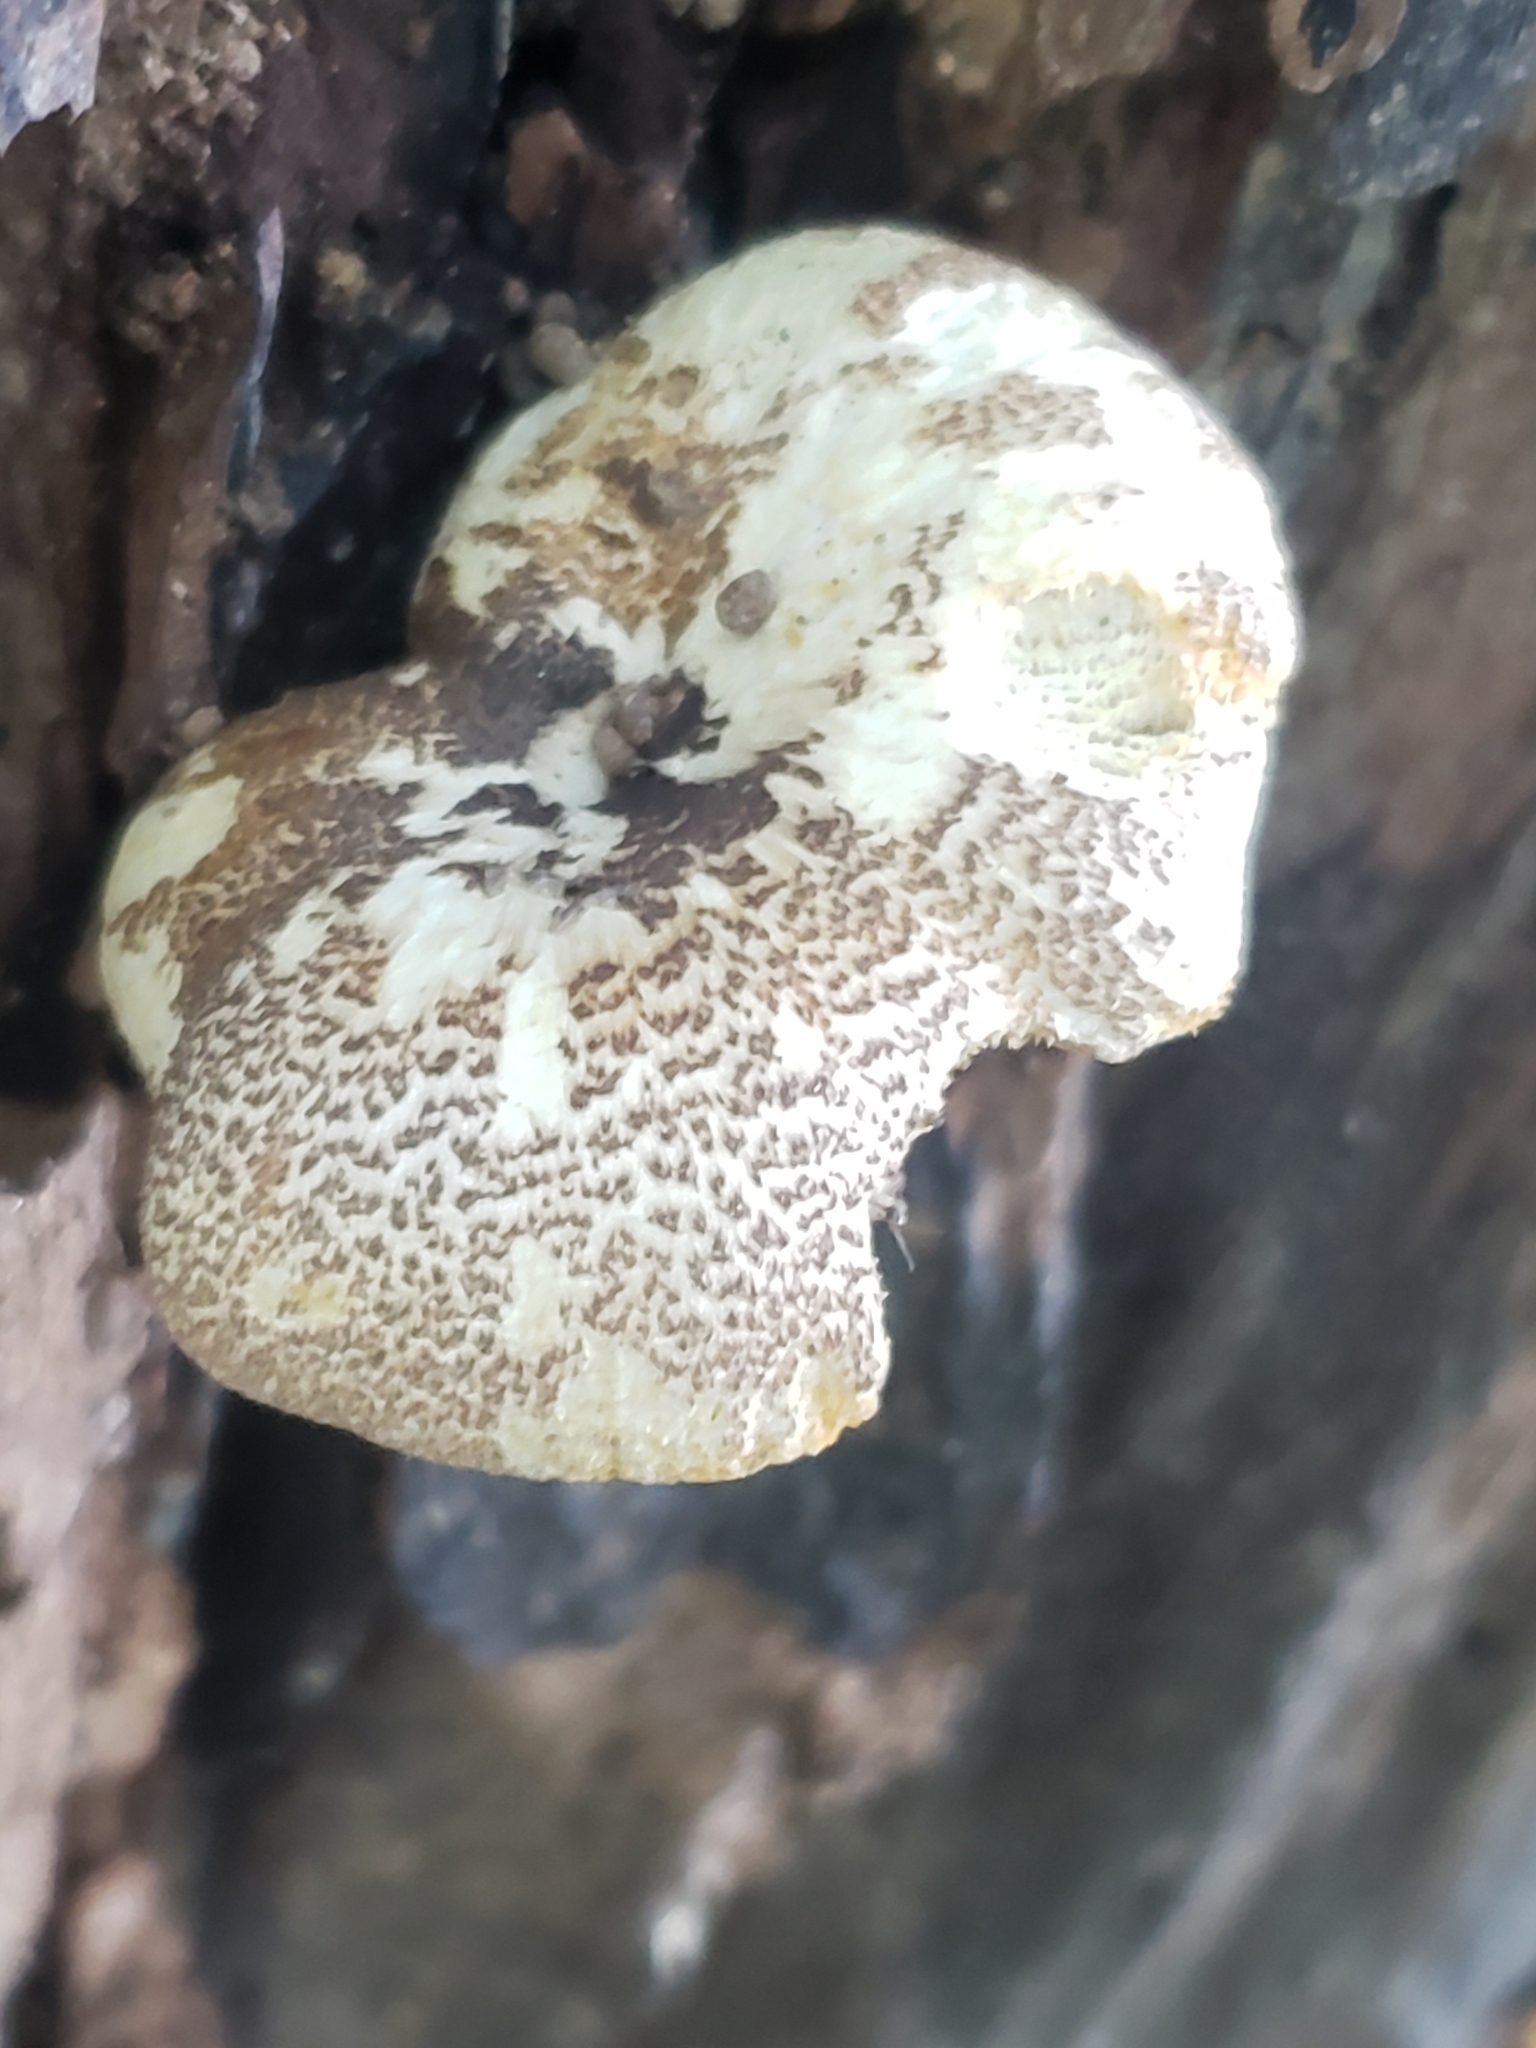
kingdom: Fungi
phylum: Basidiomycota
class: Agaricomycetes
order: Polyporales
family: Polyporaceae
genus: Lentinus
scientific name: Lentinus tigrinus
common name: Tiger sawgill
